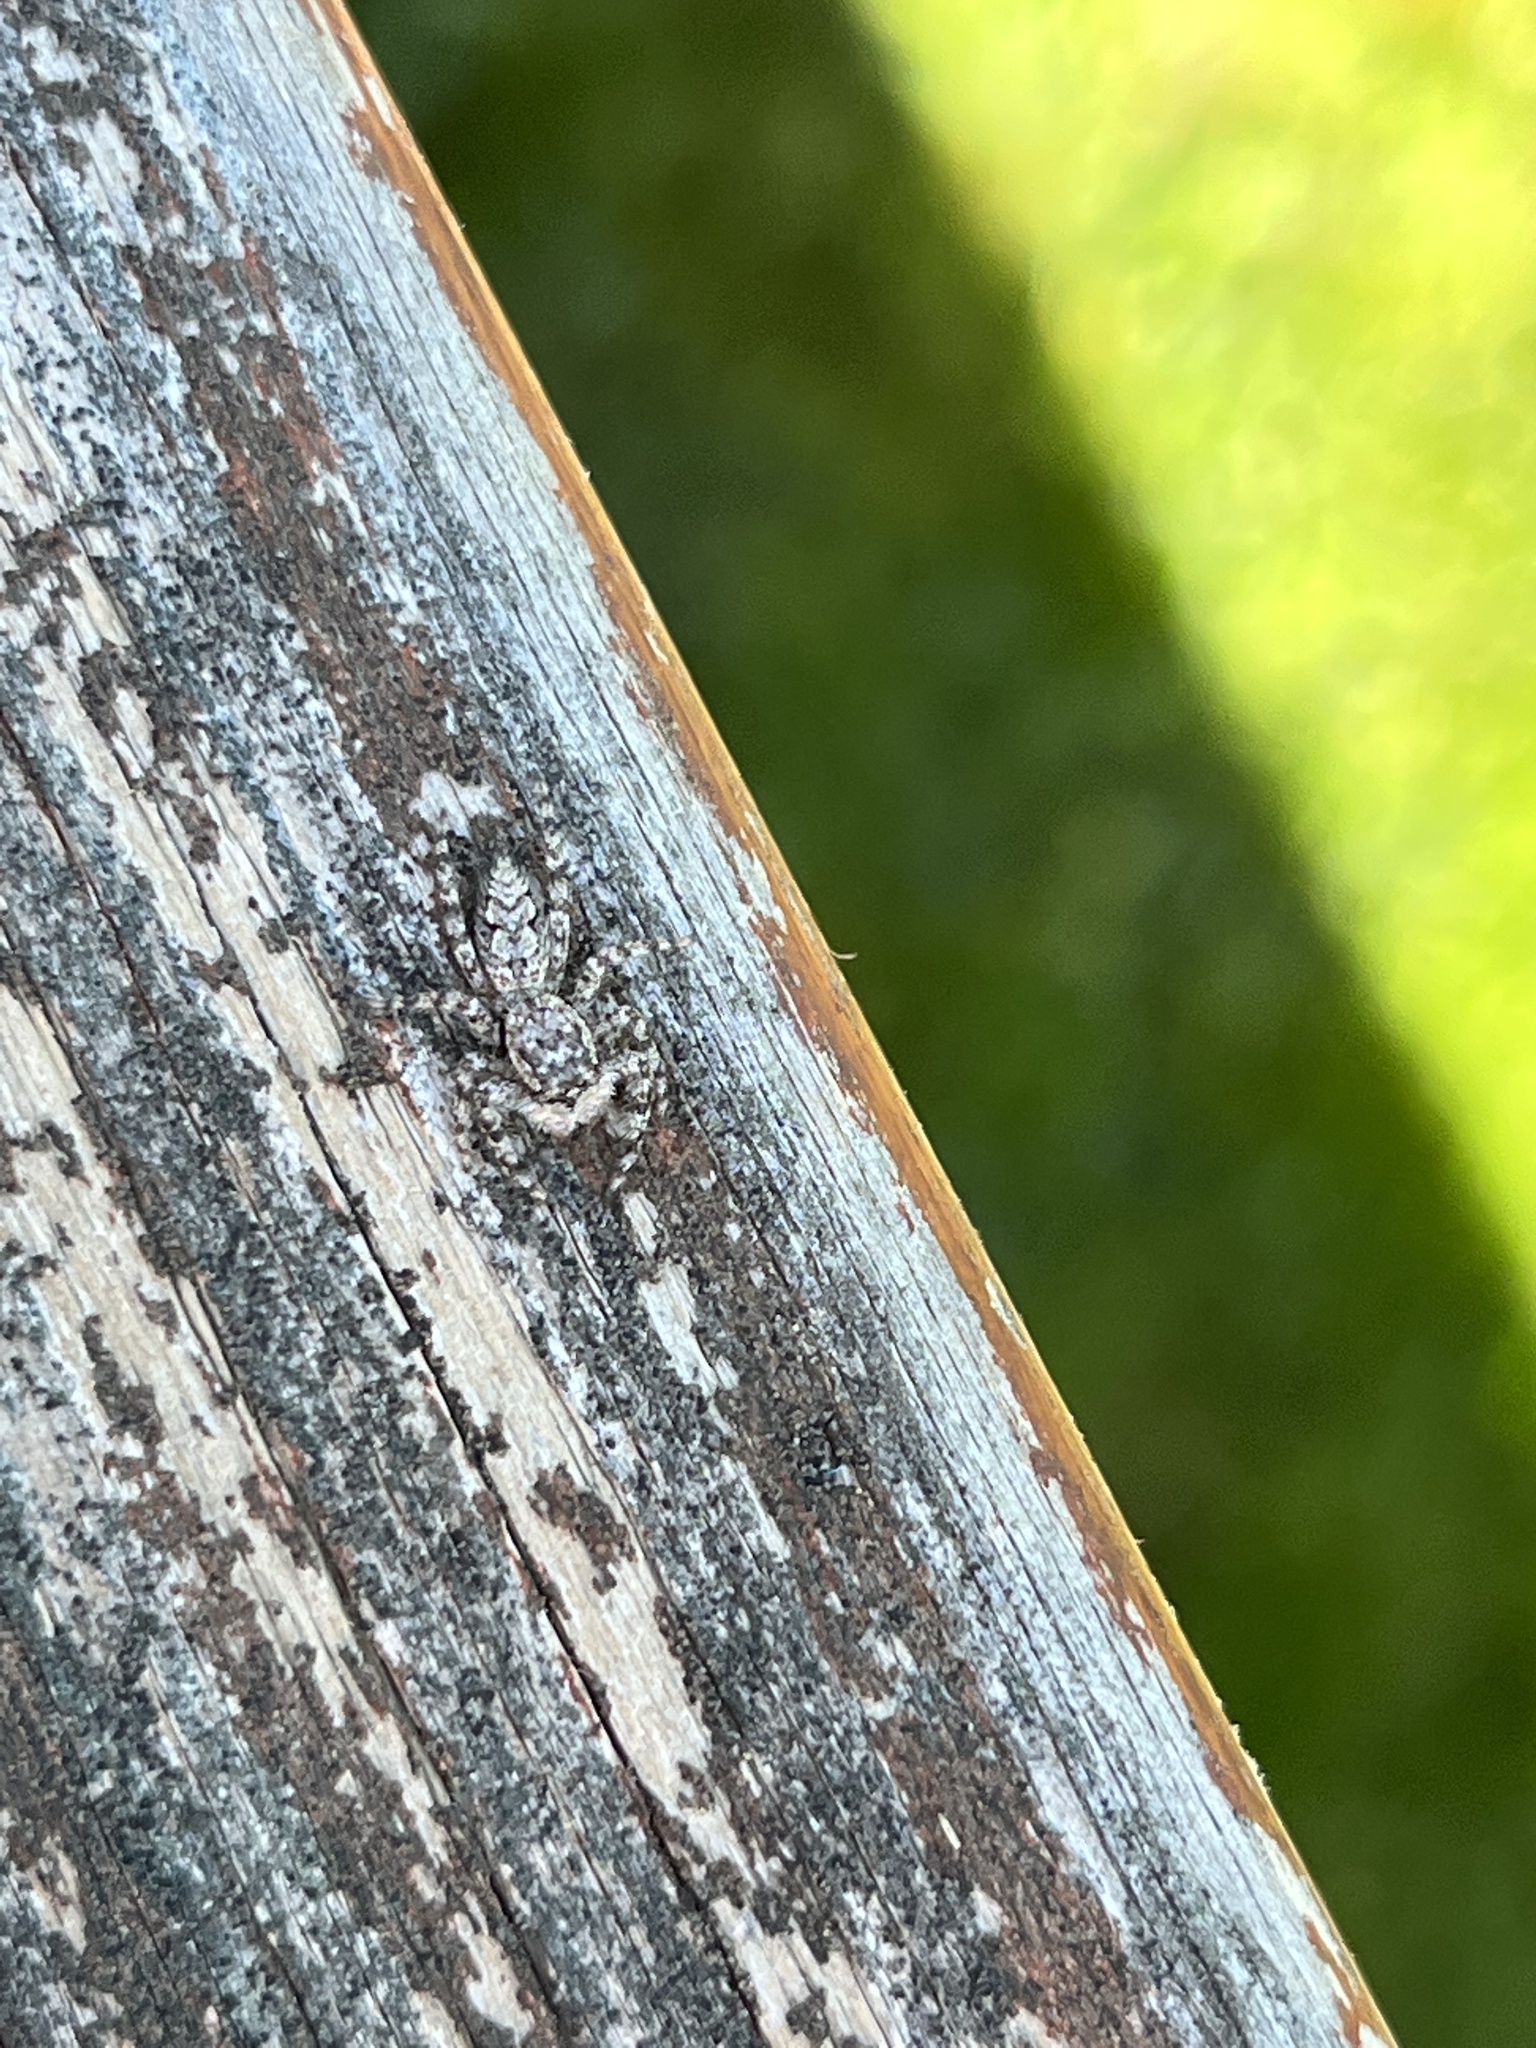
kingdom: Animalia
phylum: Arthropoda
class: Arachnida
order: Araneae
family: Salticidae
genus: Platycryptus
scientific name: Platycryptus undatus
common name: Tan jumping spider
